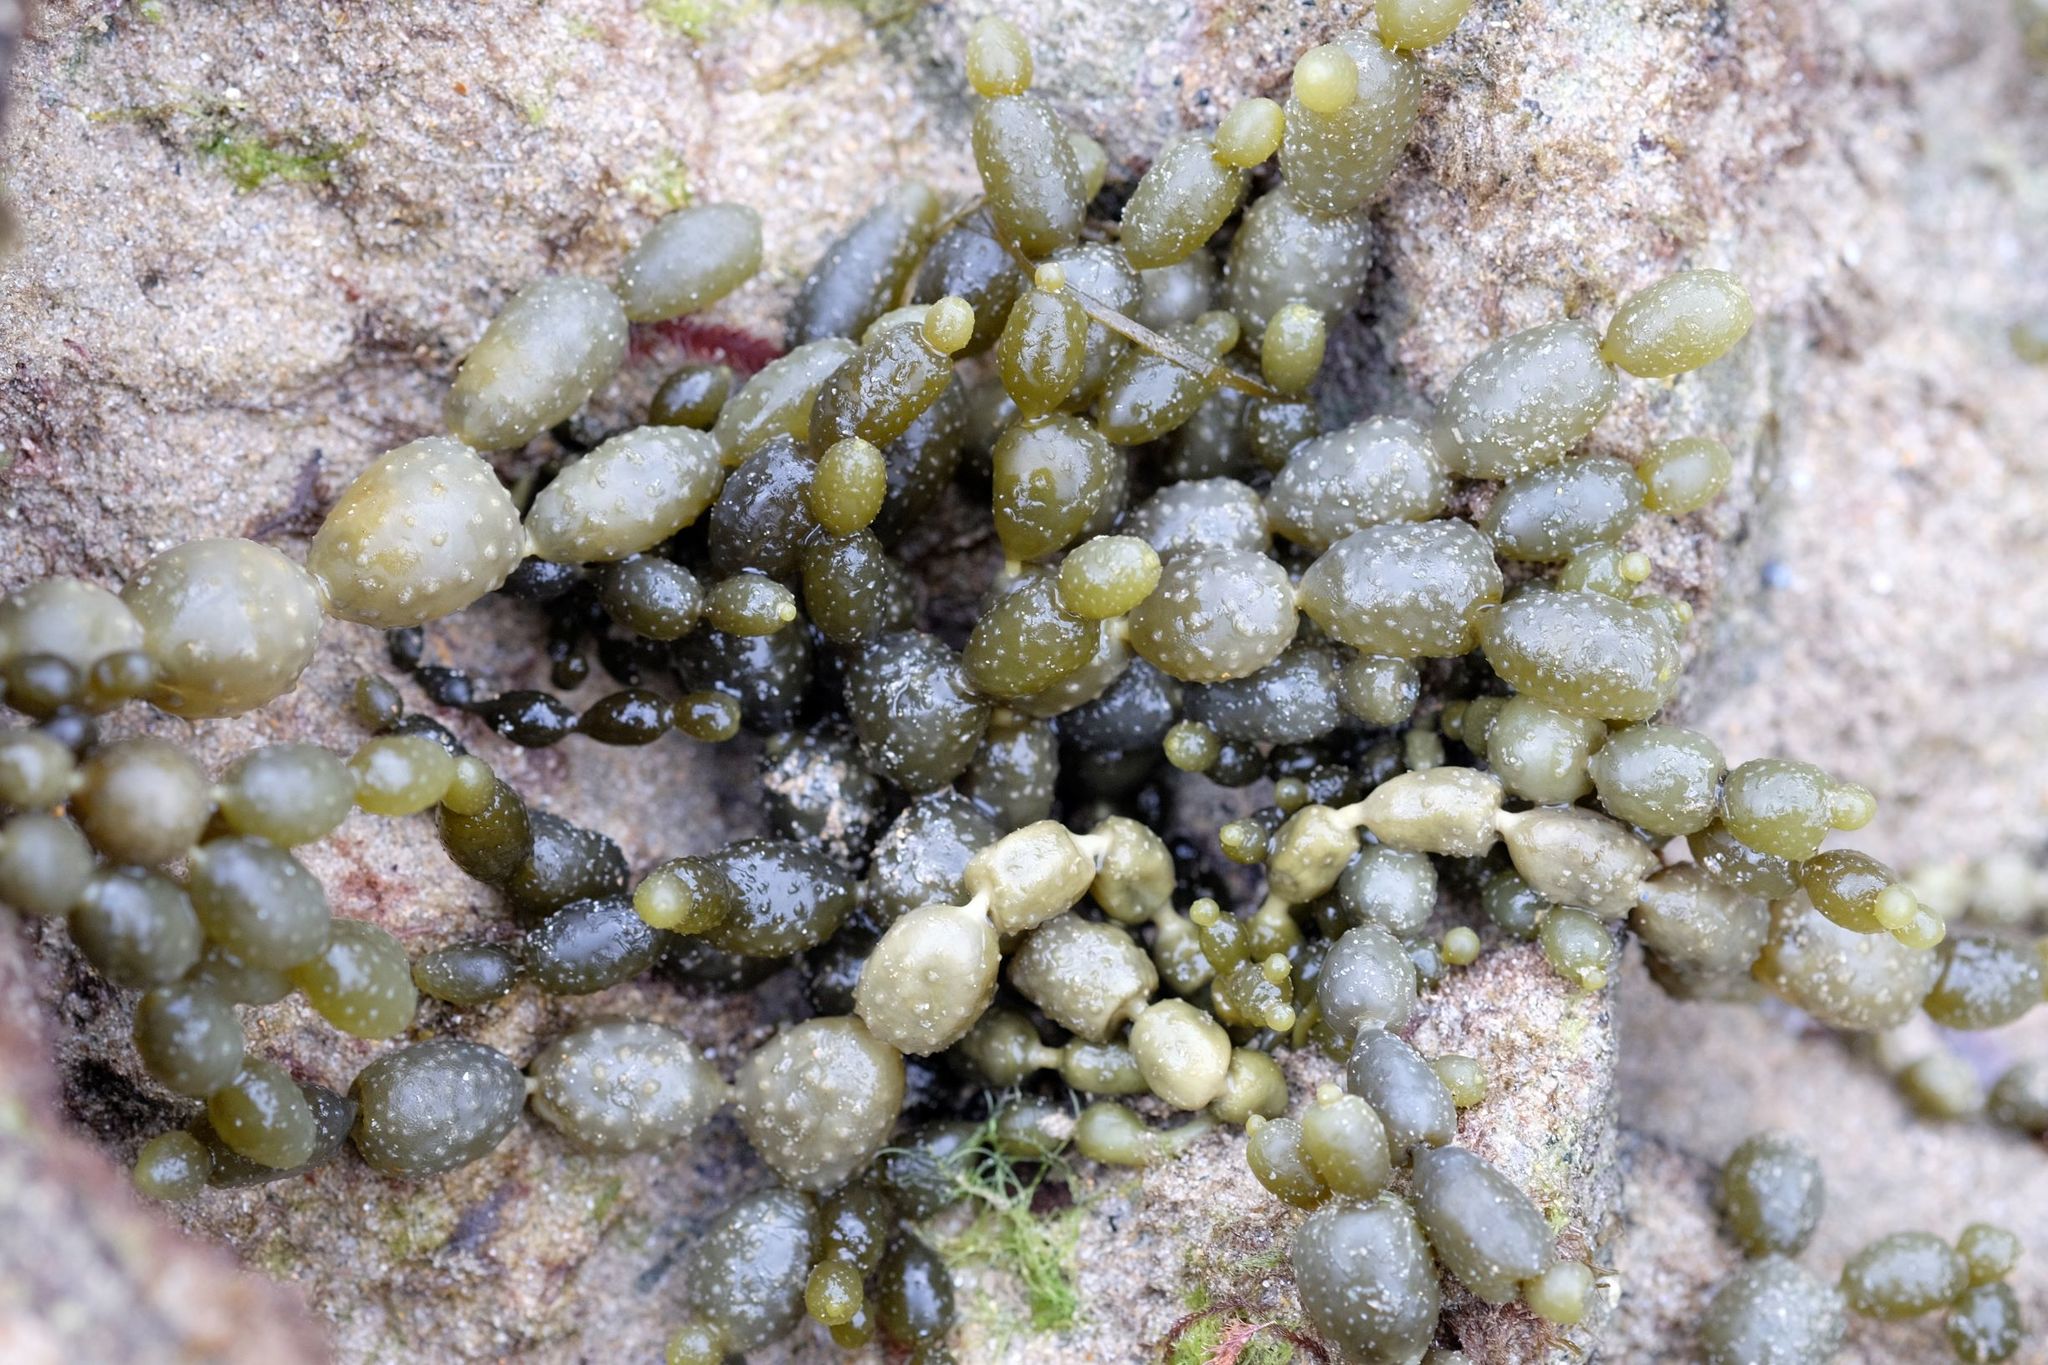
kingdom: Chromista
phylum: Ochrophyta
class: Phaeophyceae
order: Fucales
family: Hormosiraceae
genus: Hormosira
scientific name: Hormosira banksii
